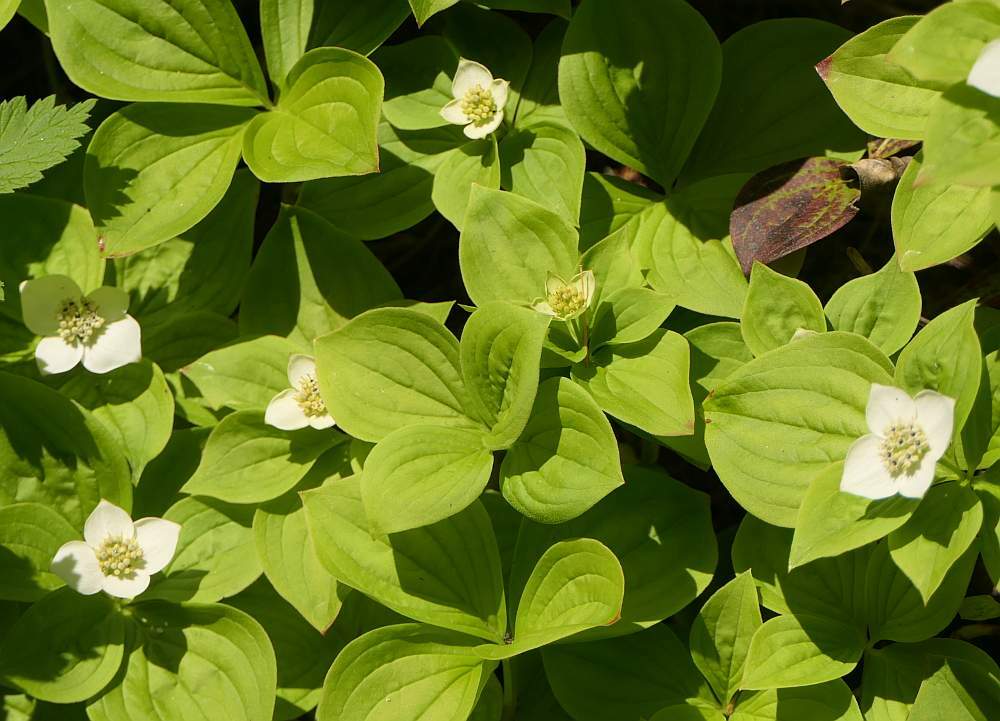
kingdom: Plantae
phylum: Tracheophyta
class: Magnoliopsida
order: Cornales
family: Cornaceae
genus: Cornus
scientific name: Cornus canadensis
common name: Creeping dogwood
